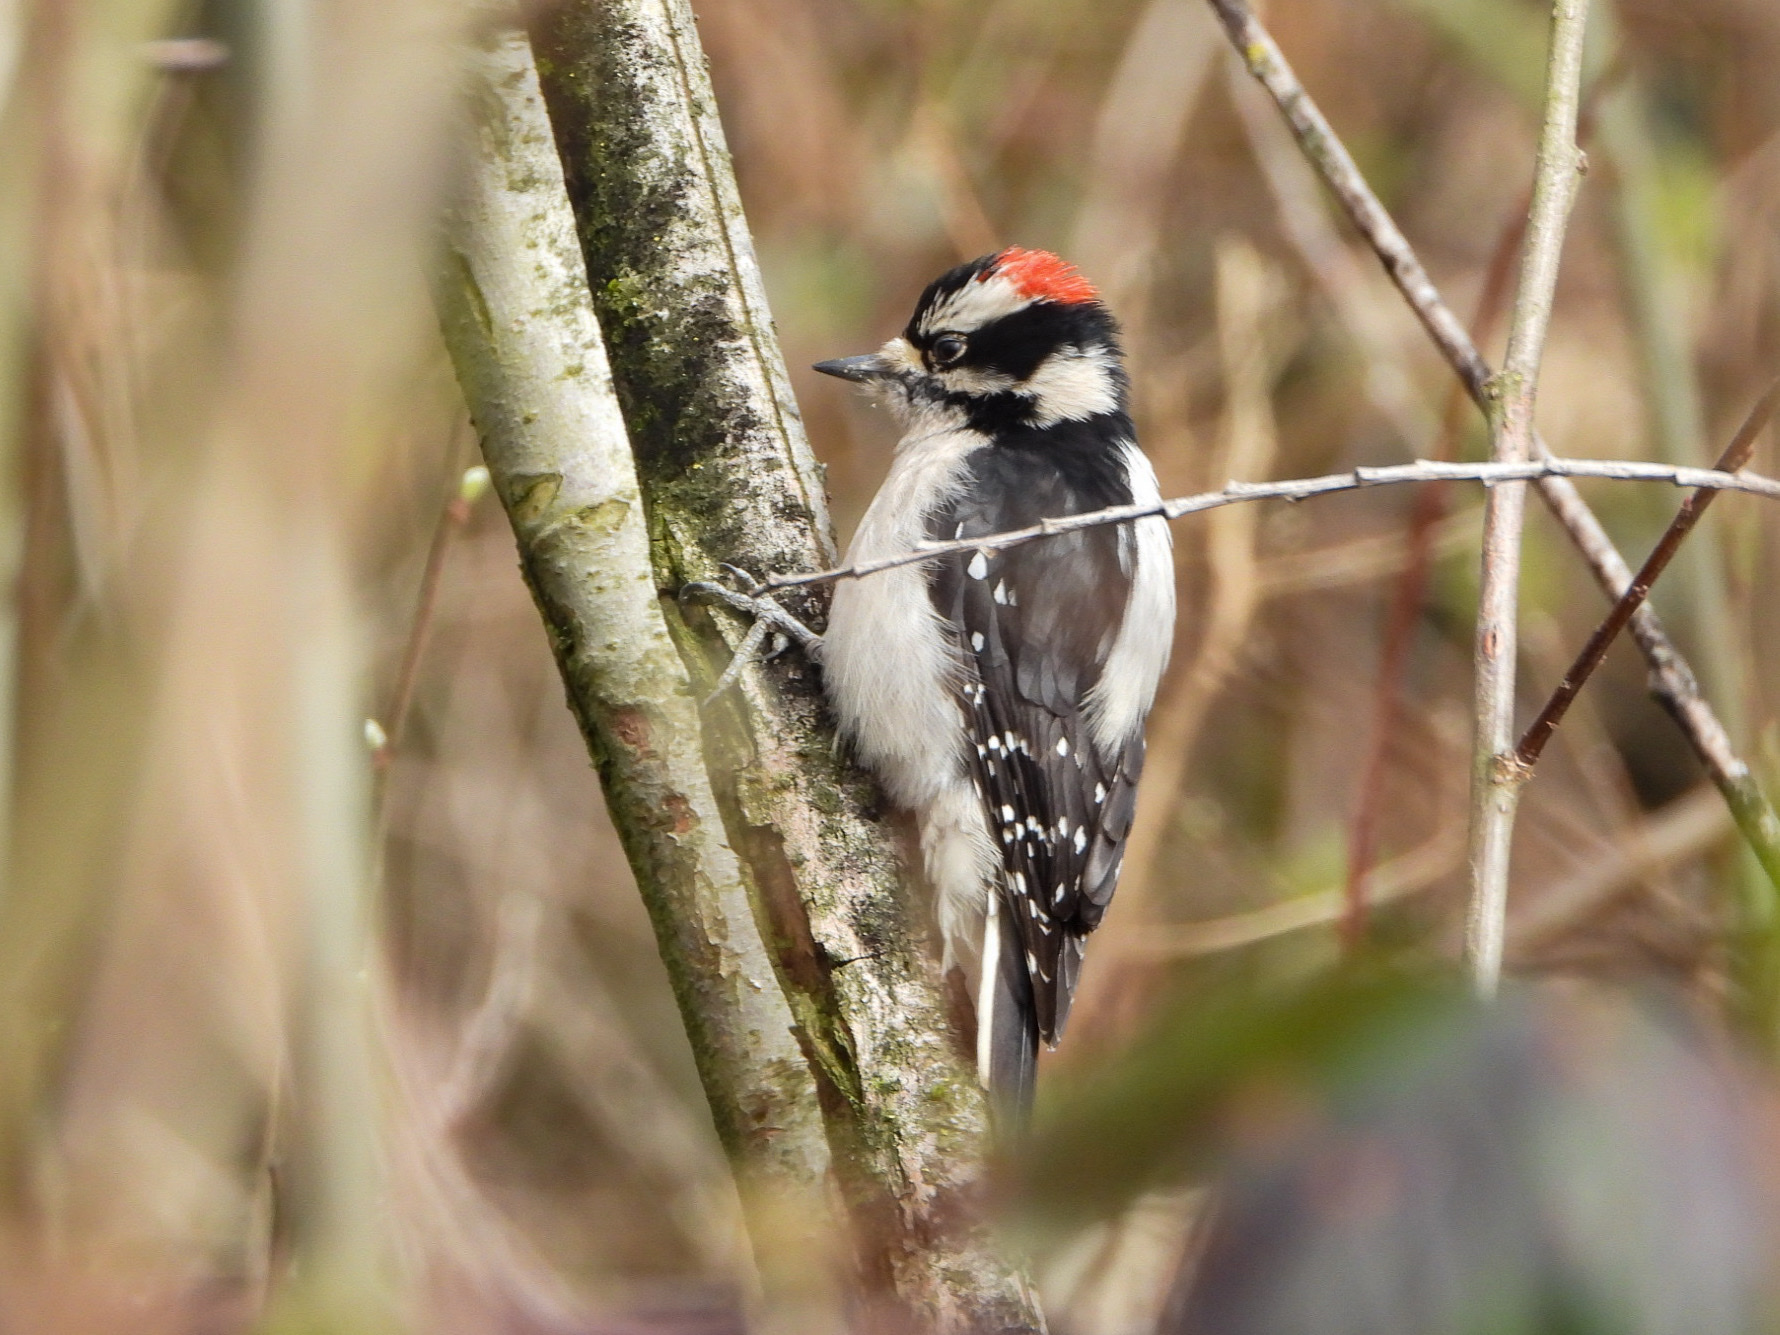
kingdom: Animalia
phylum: Chordata
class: Aves
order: Piciformes
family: Picidae
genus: Dryobates
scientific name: Dryobates pubescens
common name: Downy woodpecker
